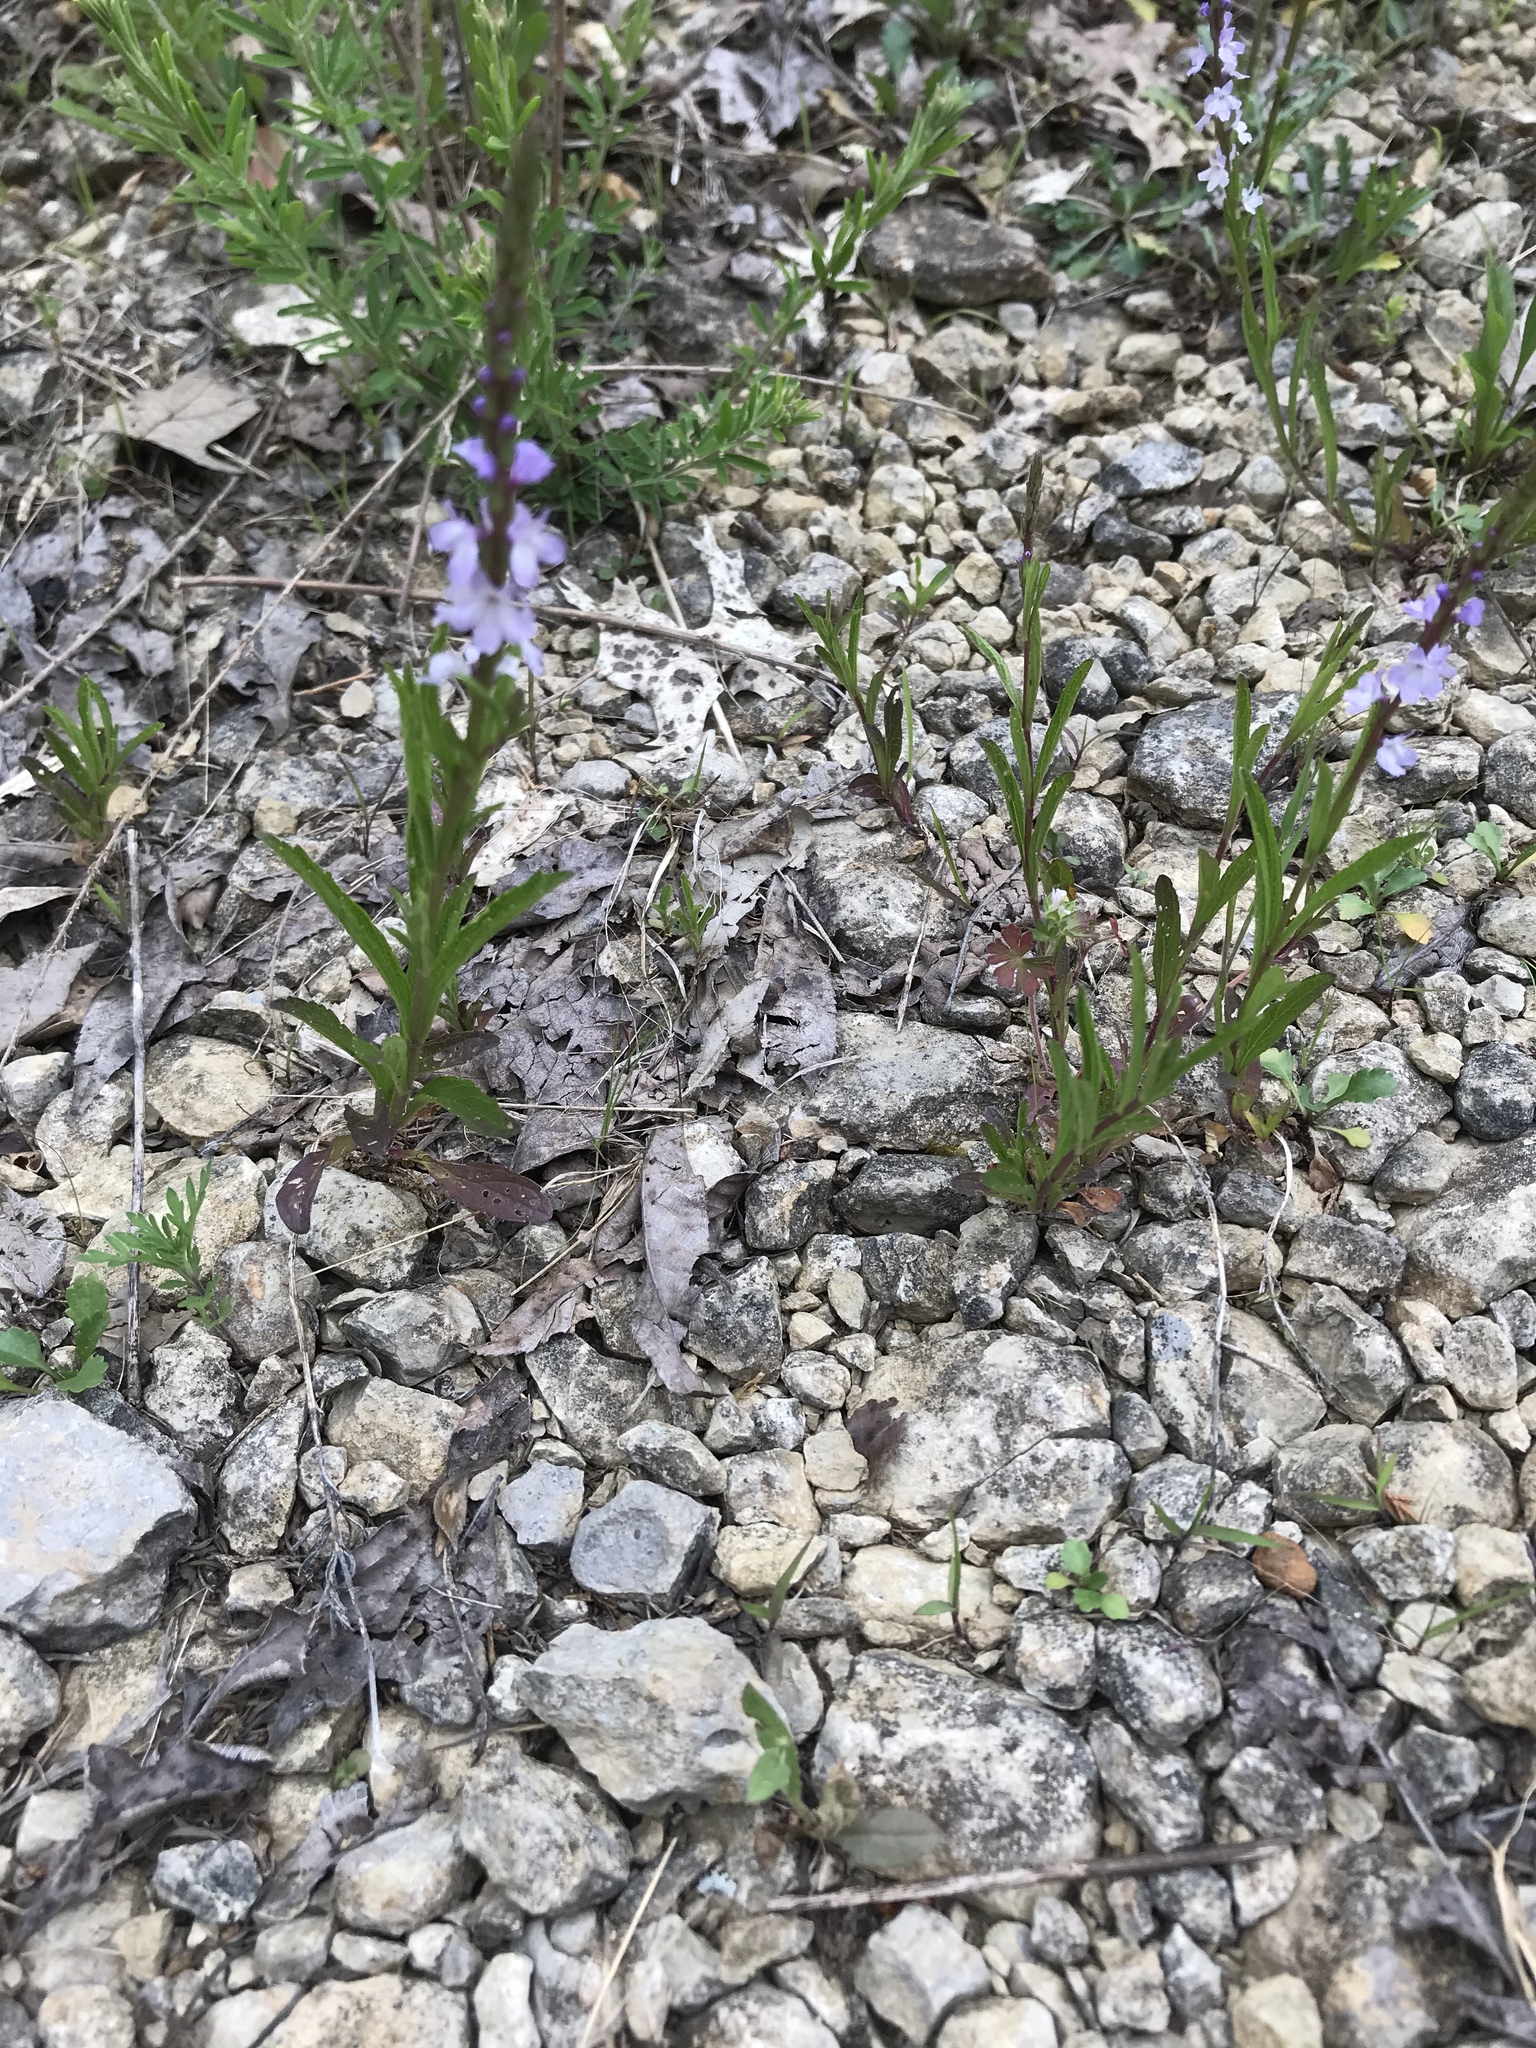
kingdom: Plantae
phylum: Tracheophyta
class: Magnoliopsida
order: Lamiales
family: Verbenaceae
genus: Verbena
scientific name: Verbena simplex
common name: Narrow-leaf vervain
